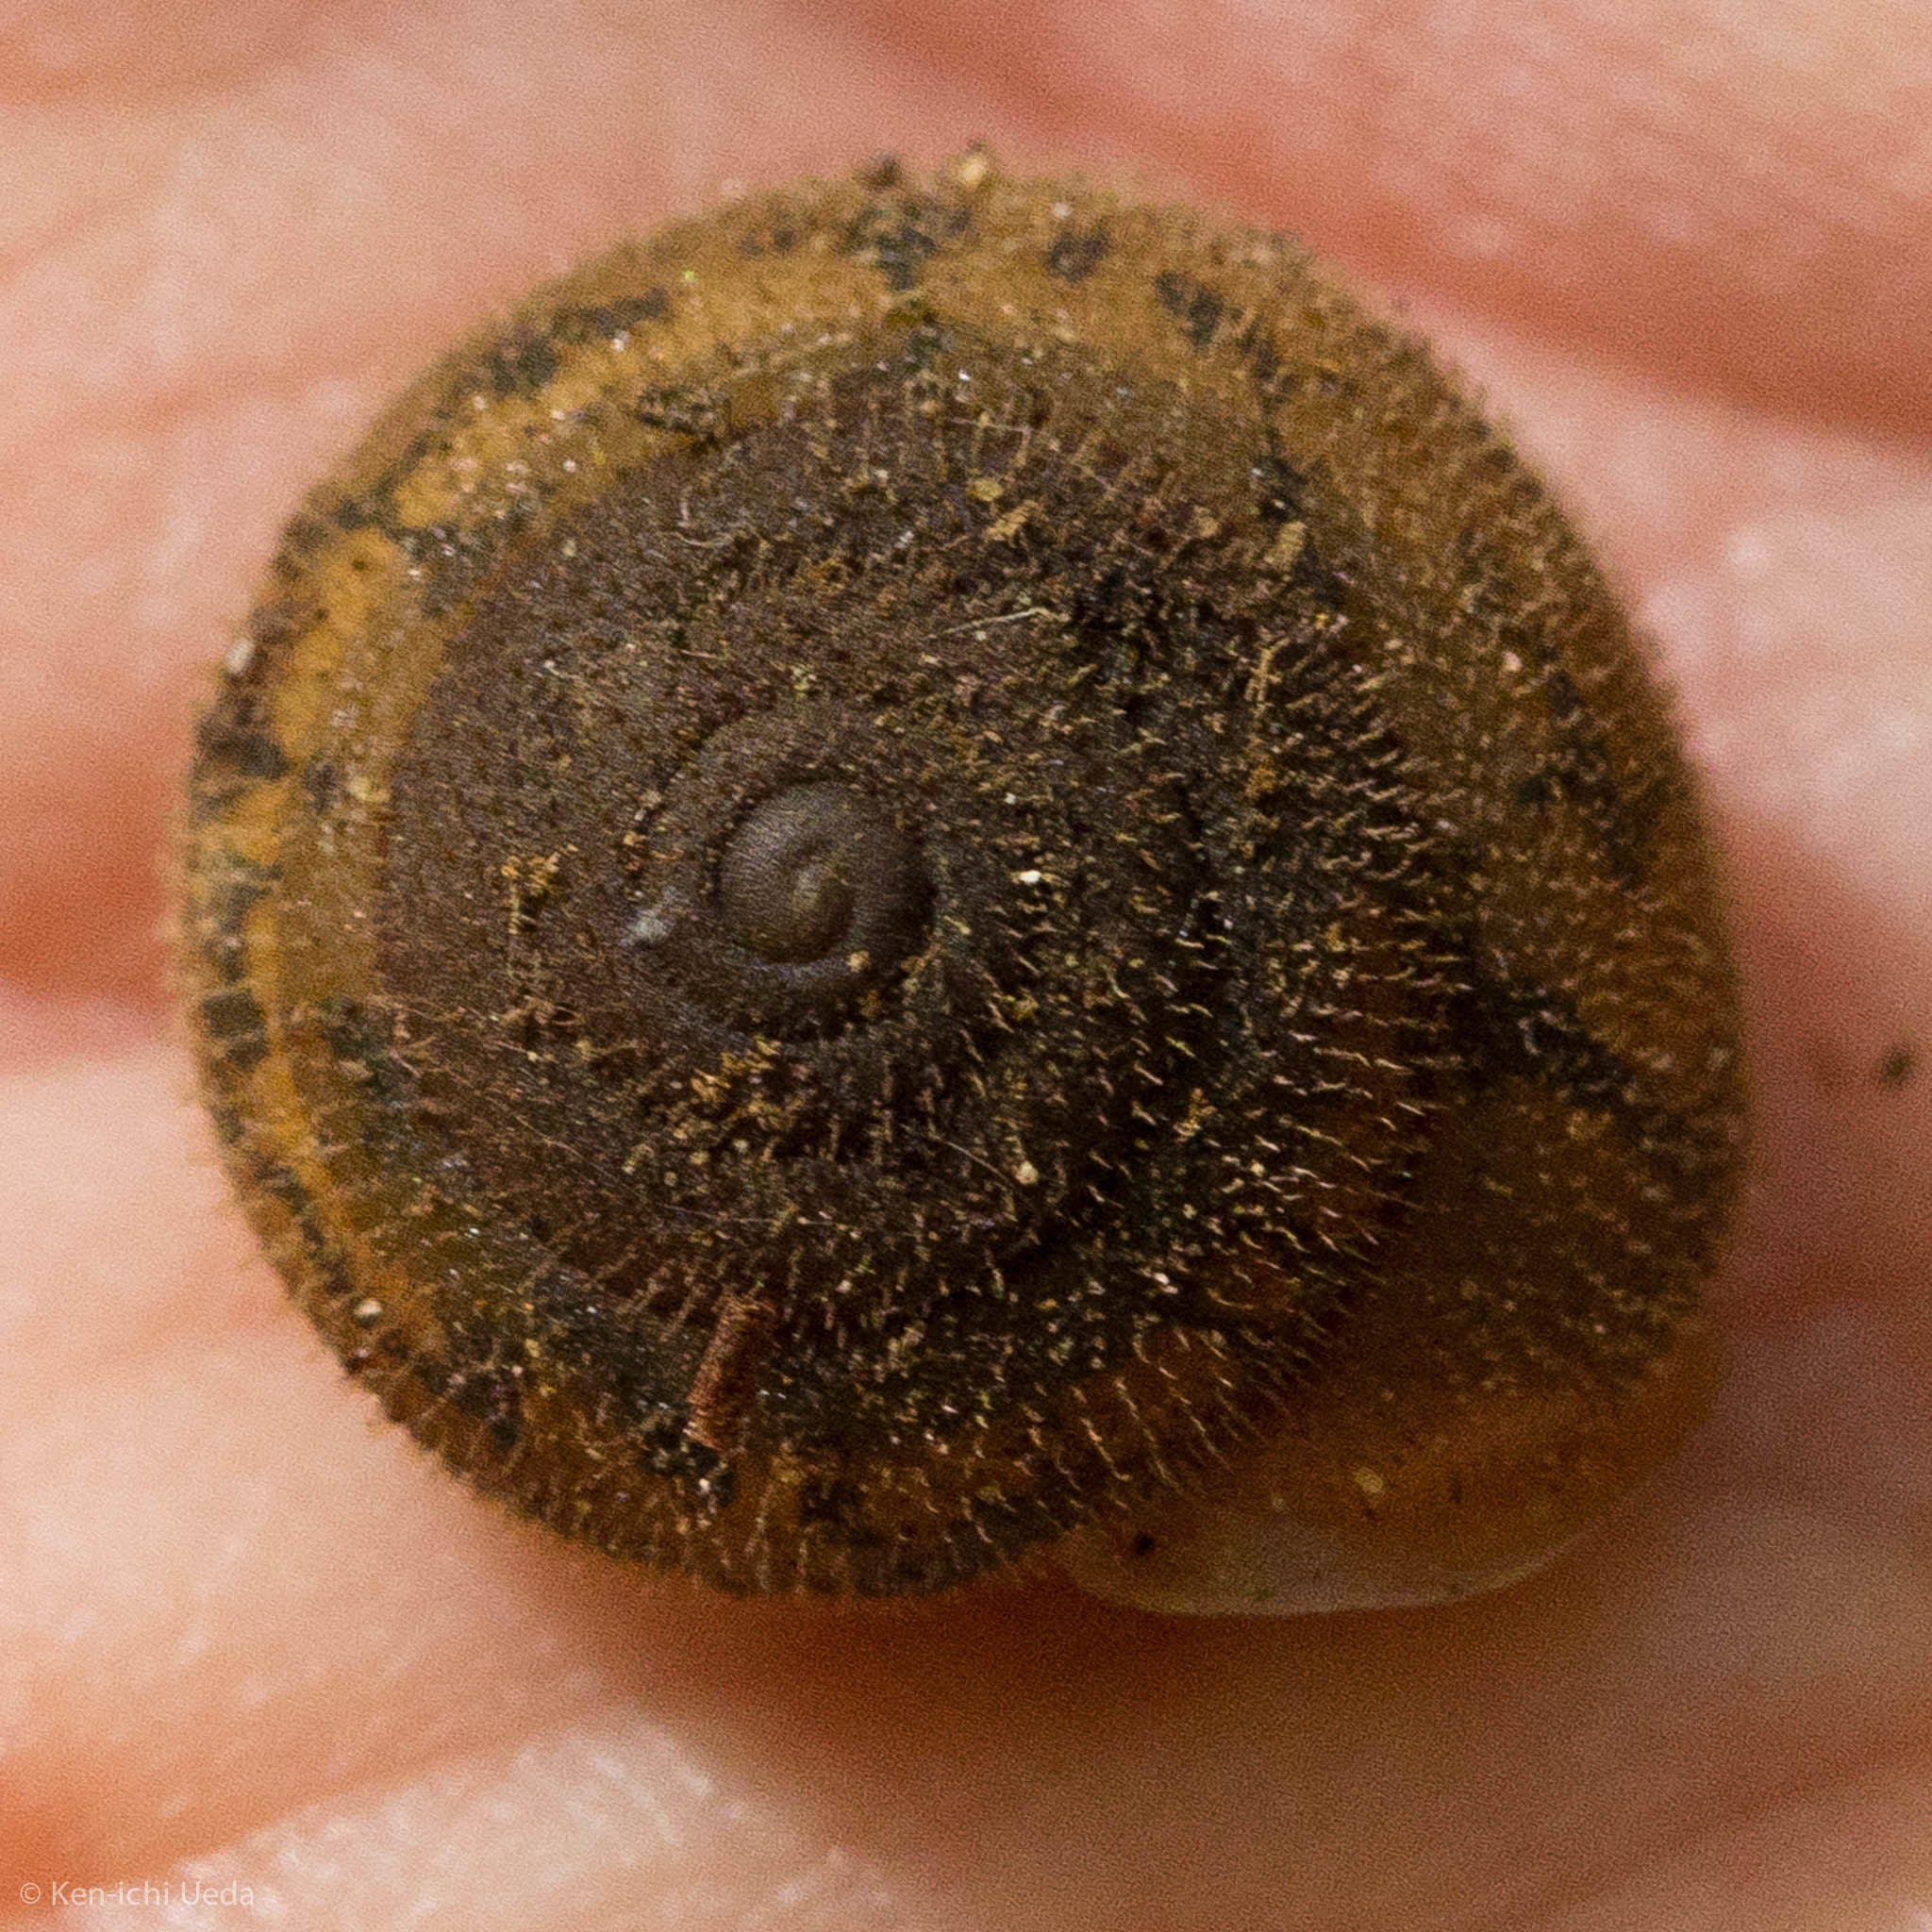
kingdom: Animalia
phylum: Mollusca
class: Gastropoda
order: Stylommatophora
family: Polygyridae
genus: Vespericola
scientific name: Vespericola pilosus
